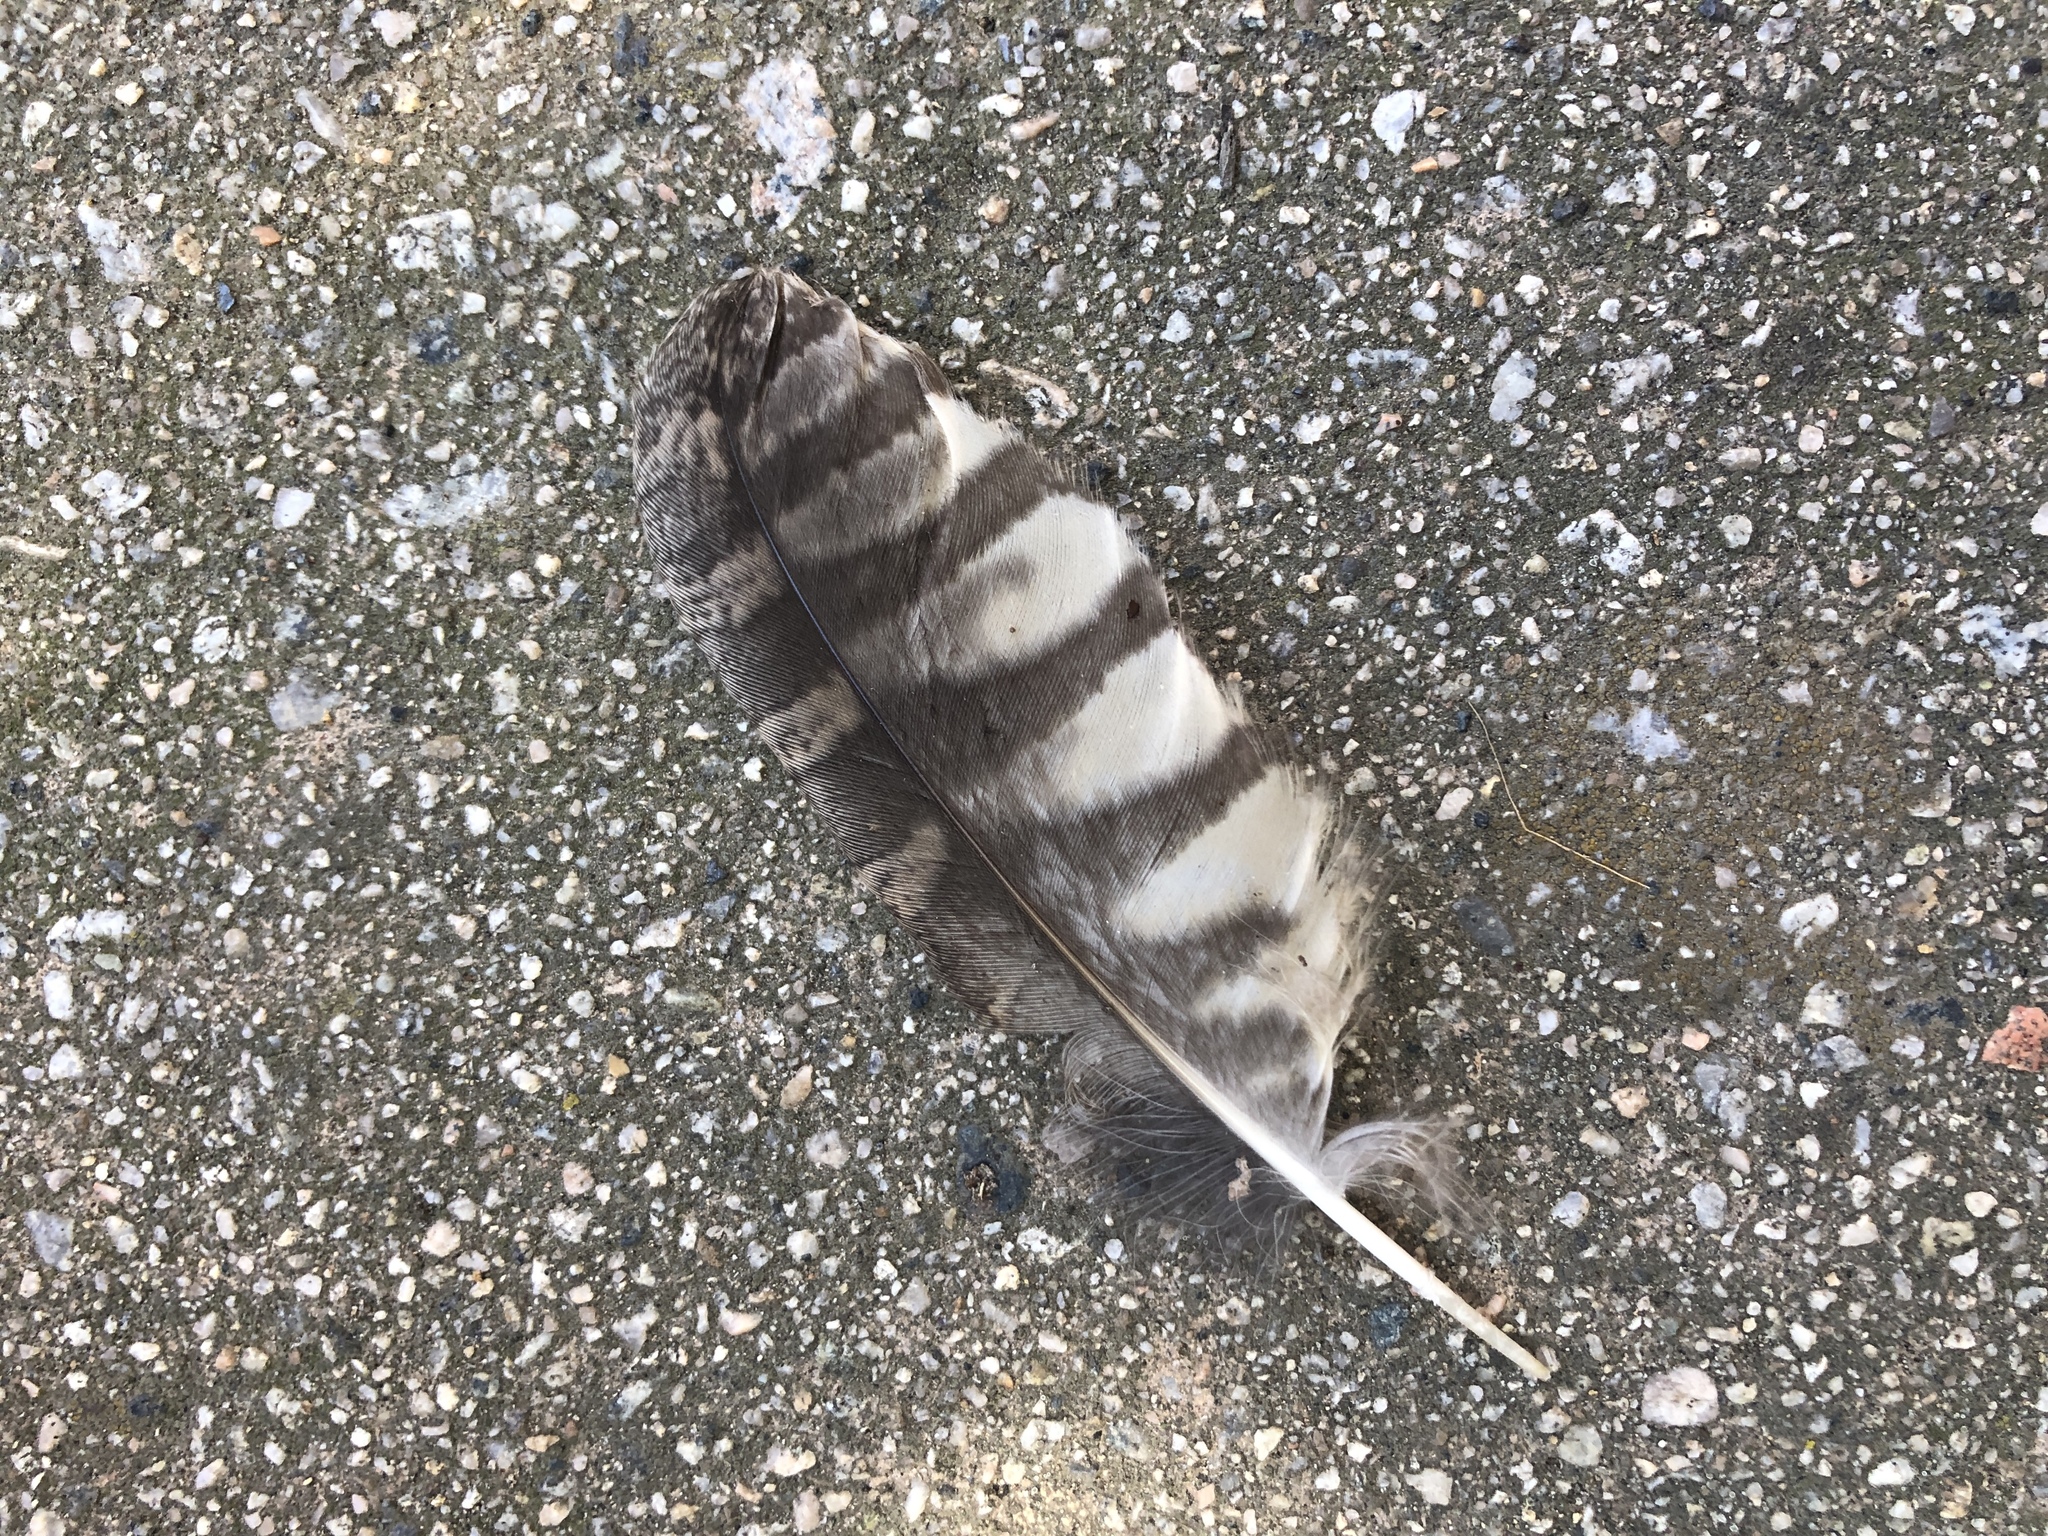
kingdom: Animalia
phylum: Chordata
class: Aves
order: Strigiformes
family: Strigidae
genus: Megascops
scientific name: Megascops kennicottii
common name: Western screech-owl
